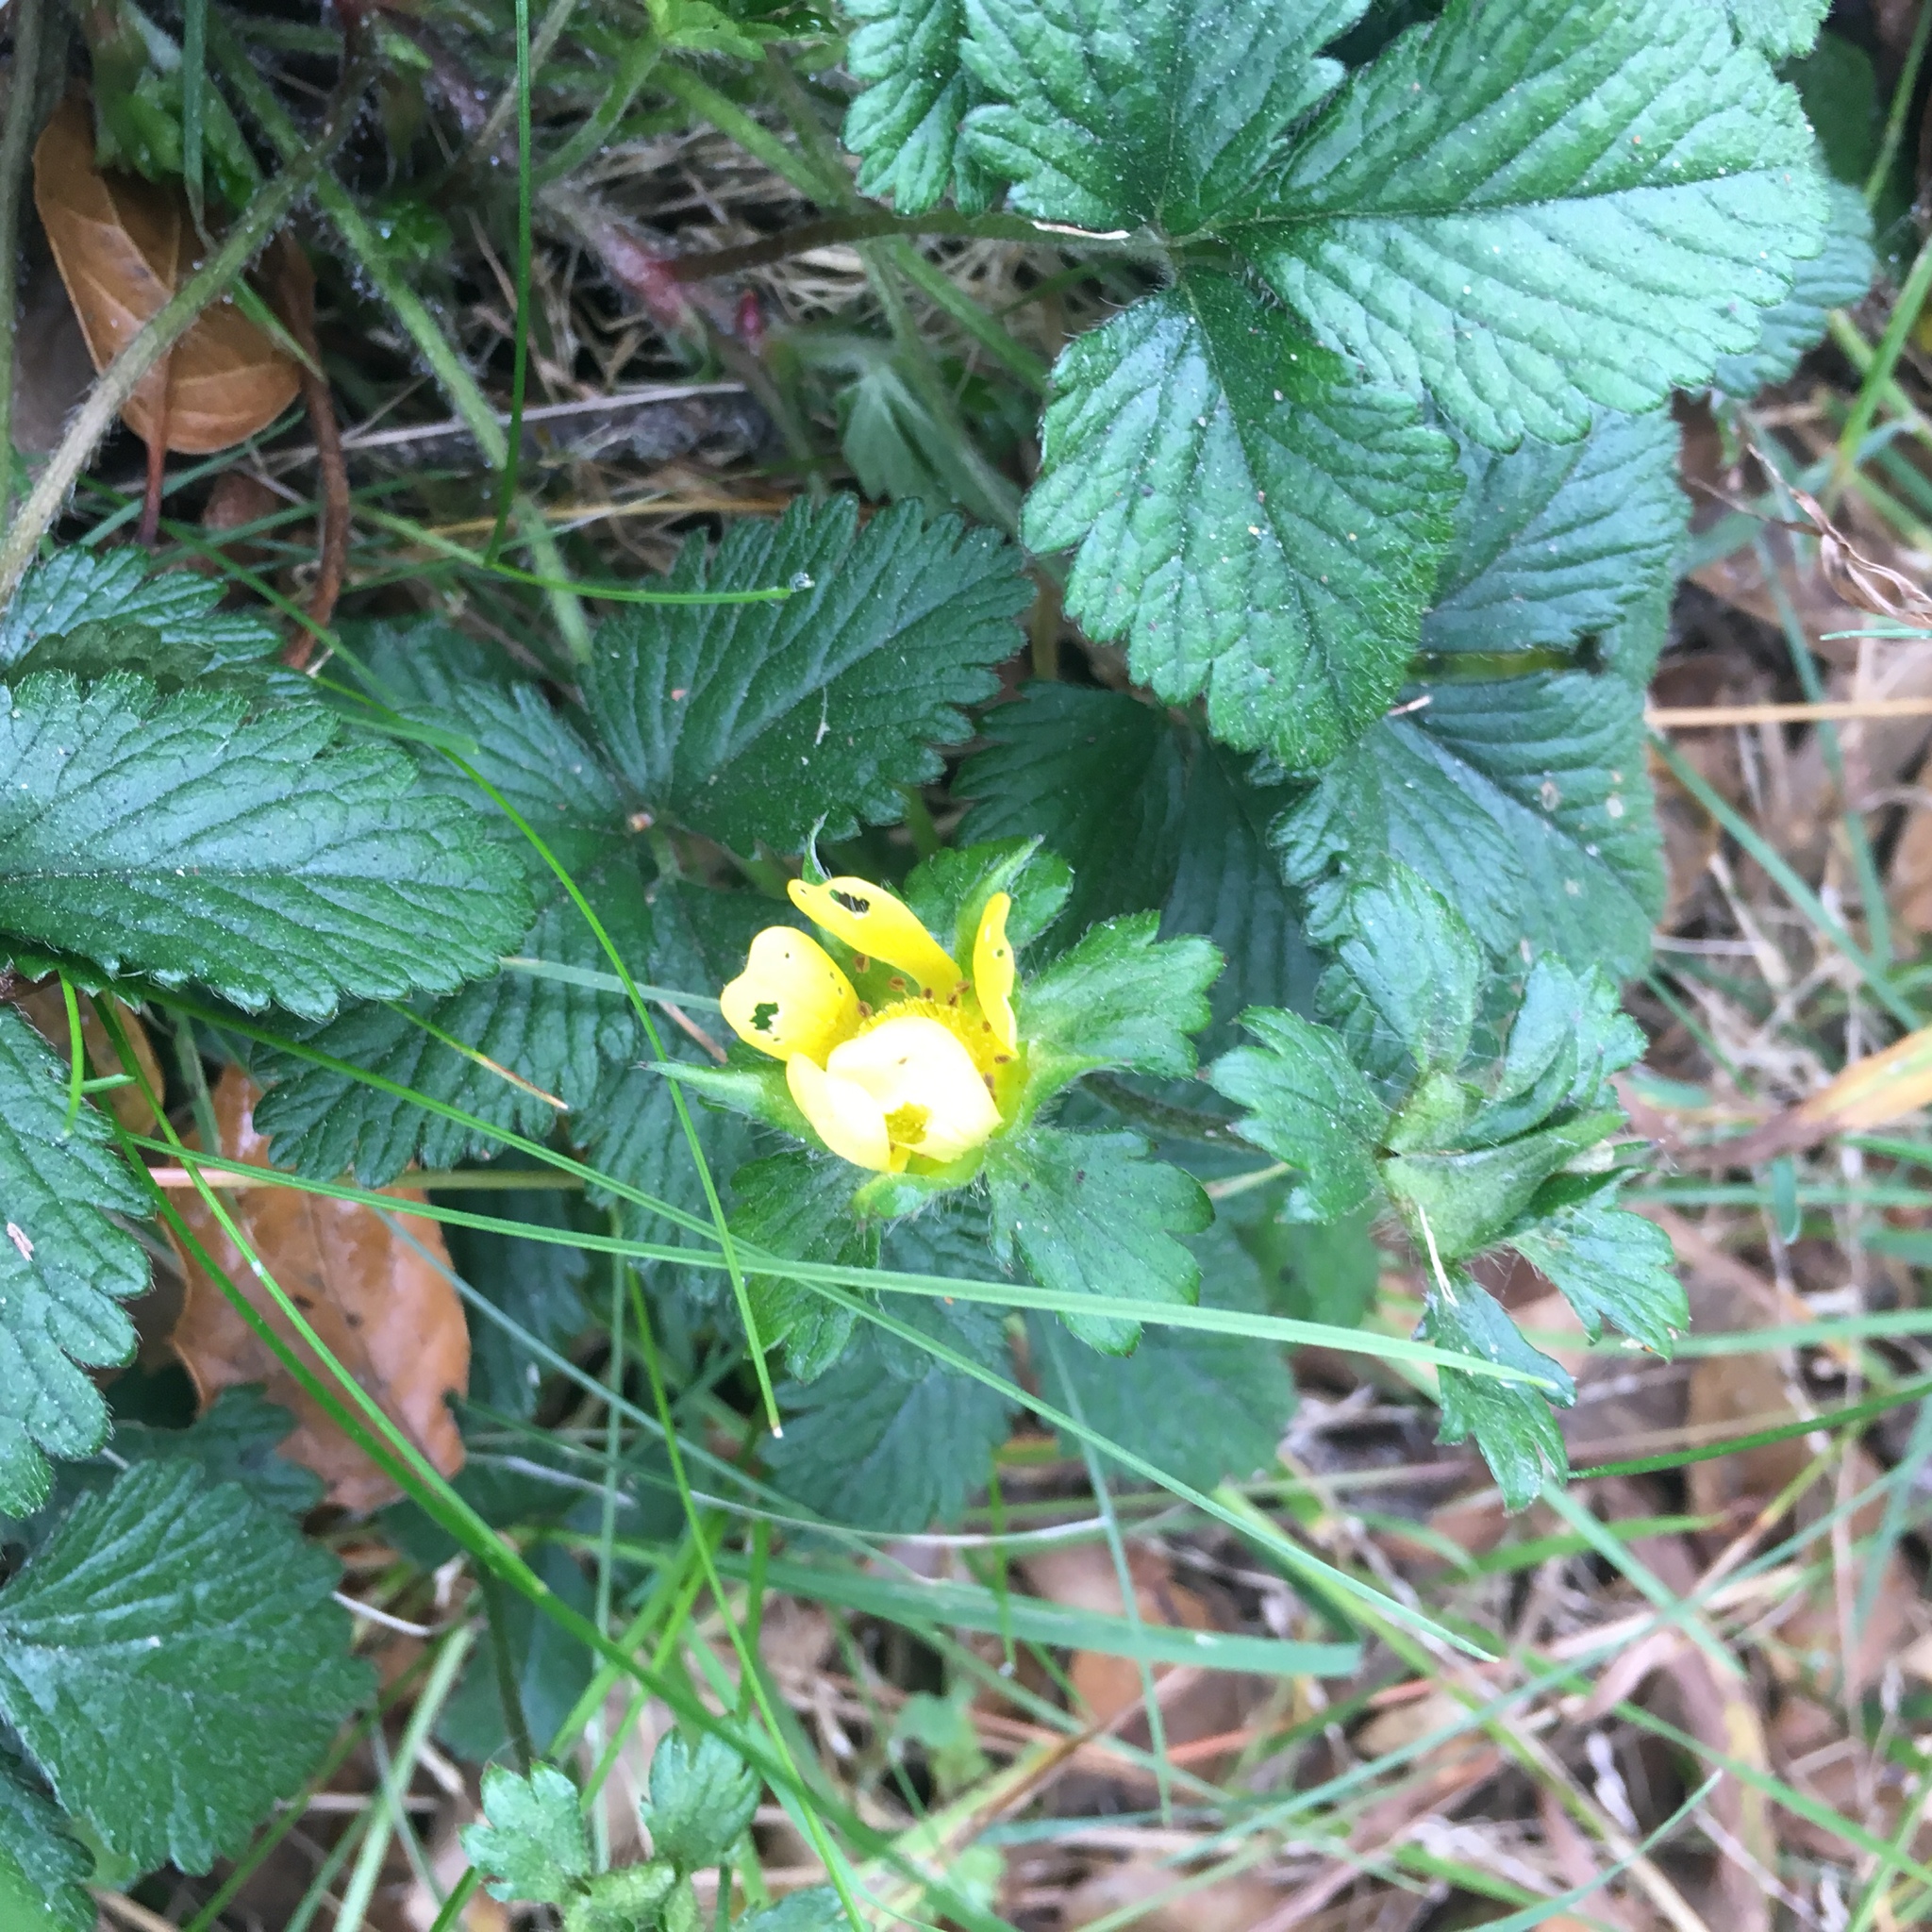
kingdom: Plantae
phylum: Tracheophyta
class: Magnoliopsida
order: Rosales
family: Rosaceae
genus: Potentilla
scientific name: Potentilla indica
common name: Yellow-flowered strawberry
